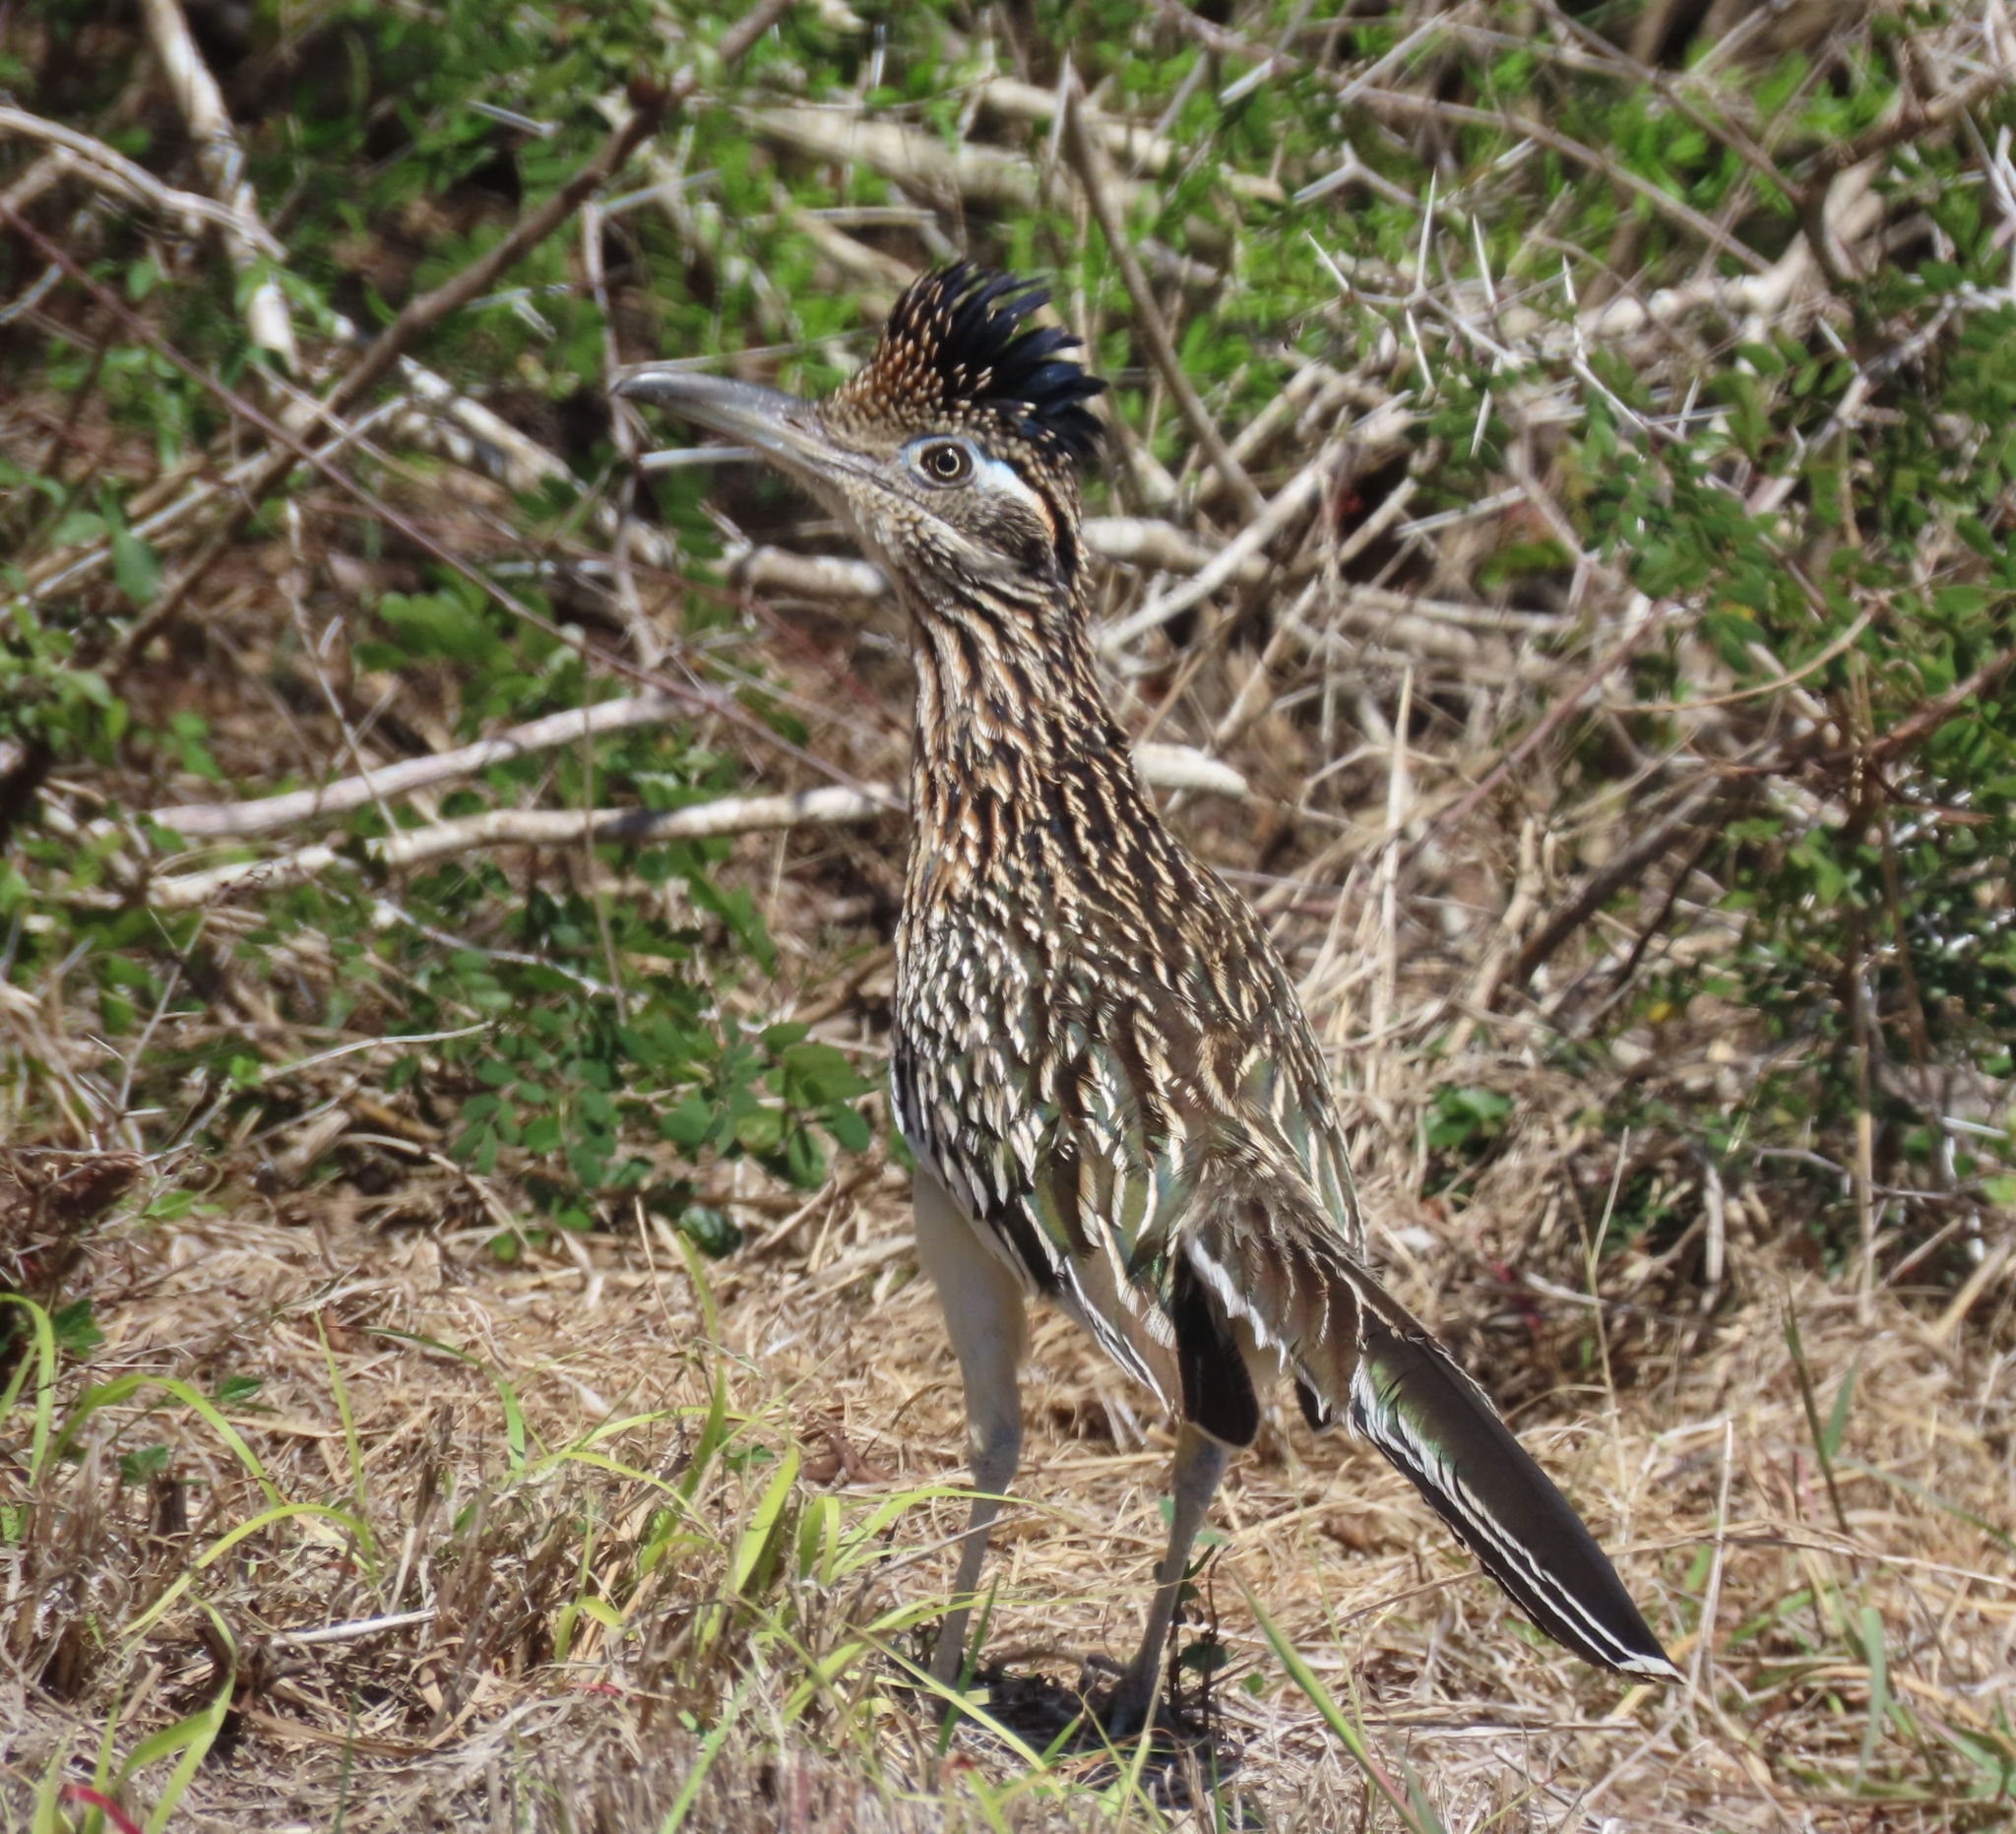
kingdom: Animalia
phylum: Chordata
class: Aves
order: Cuculiformes
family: Cuculidae
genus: Geococcyx
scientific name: Geococcyx californianus
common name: Greater roadrunner
